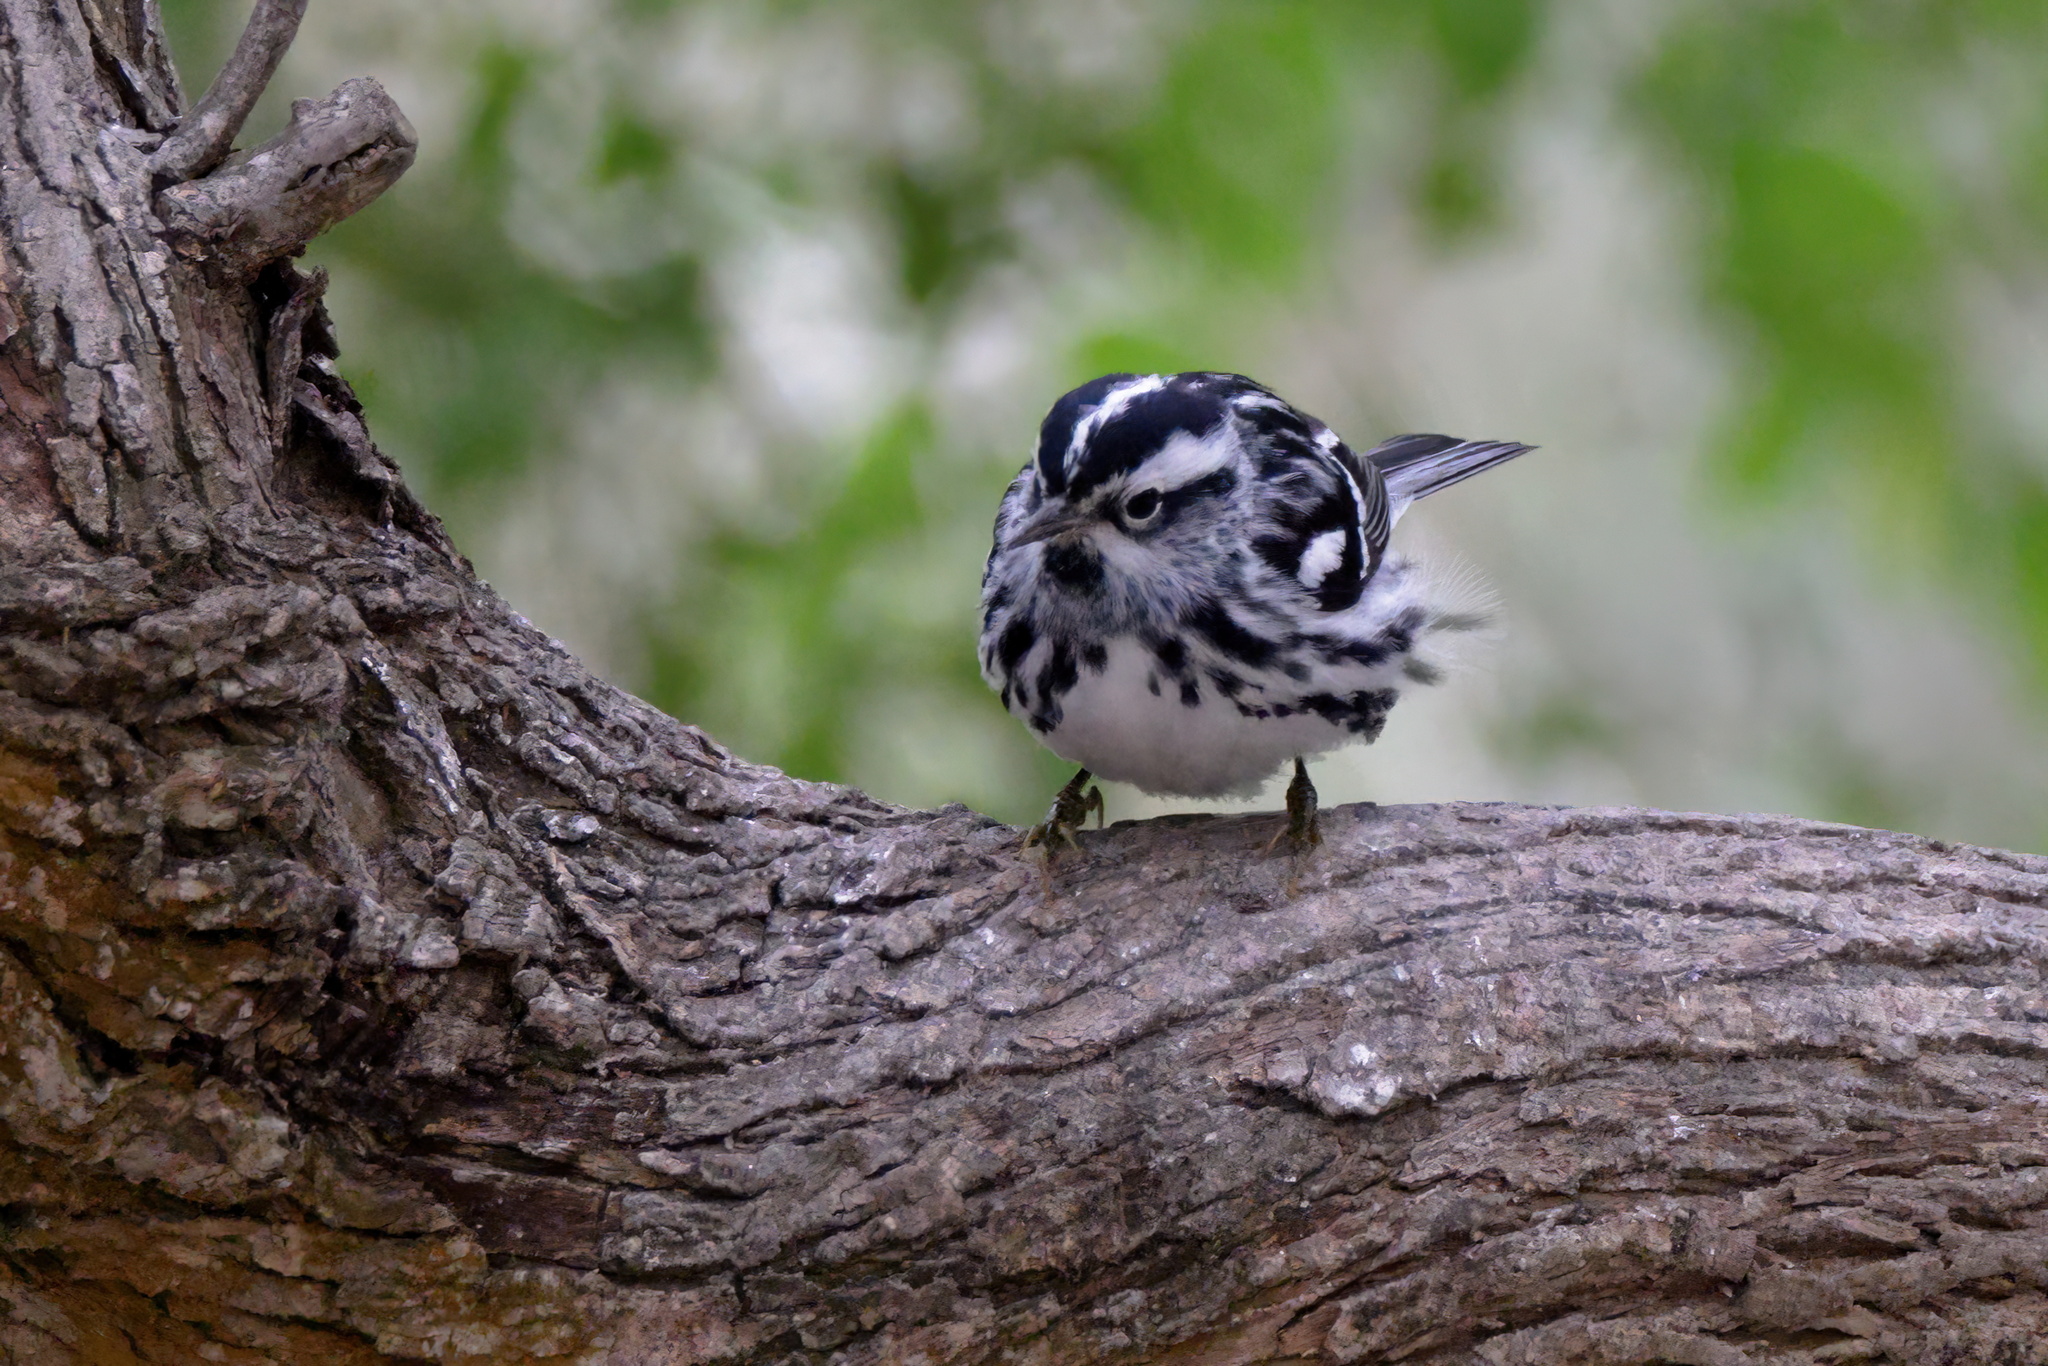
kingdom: Animalia
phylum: Chordata
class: Aves
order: Passeriformes
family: Parulidae
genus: Mniotilta
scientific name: Mniotilta varia
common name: Black-and-white warbler
